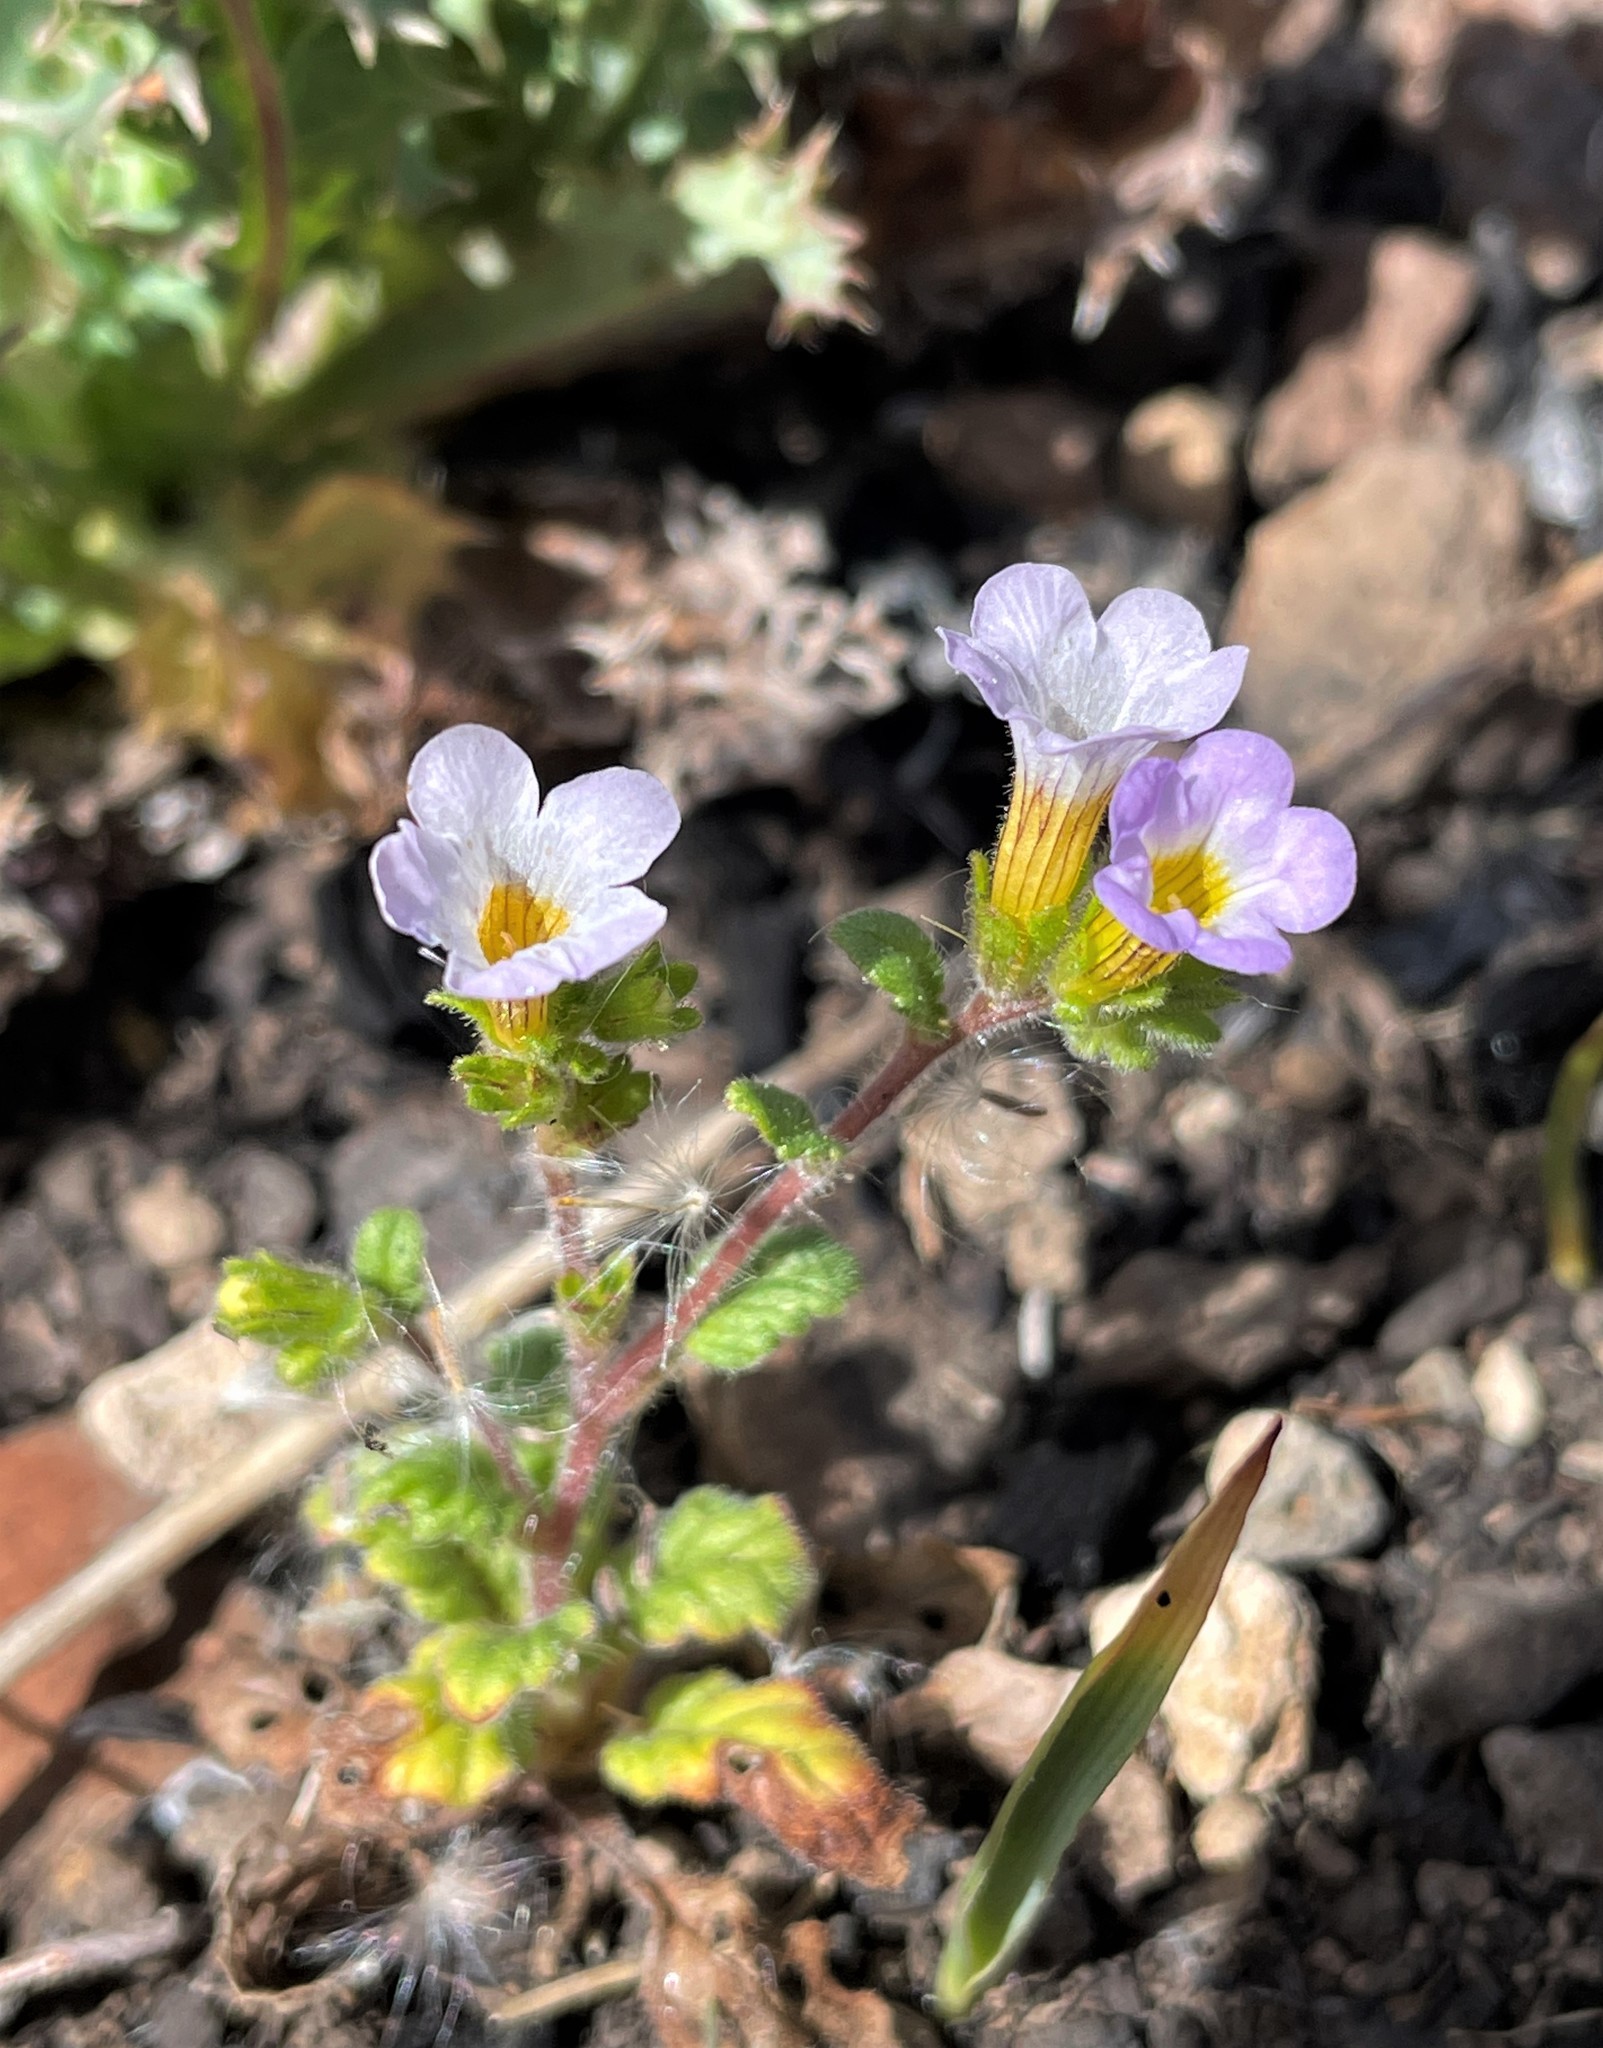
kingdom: Plantae
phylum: Tracheophyta
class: Magnoliopsida
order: Boraginales
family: Hydrophyllaceae
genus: Phacelia
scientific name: Phacelia suaveolens
